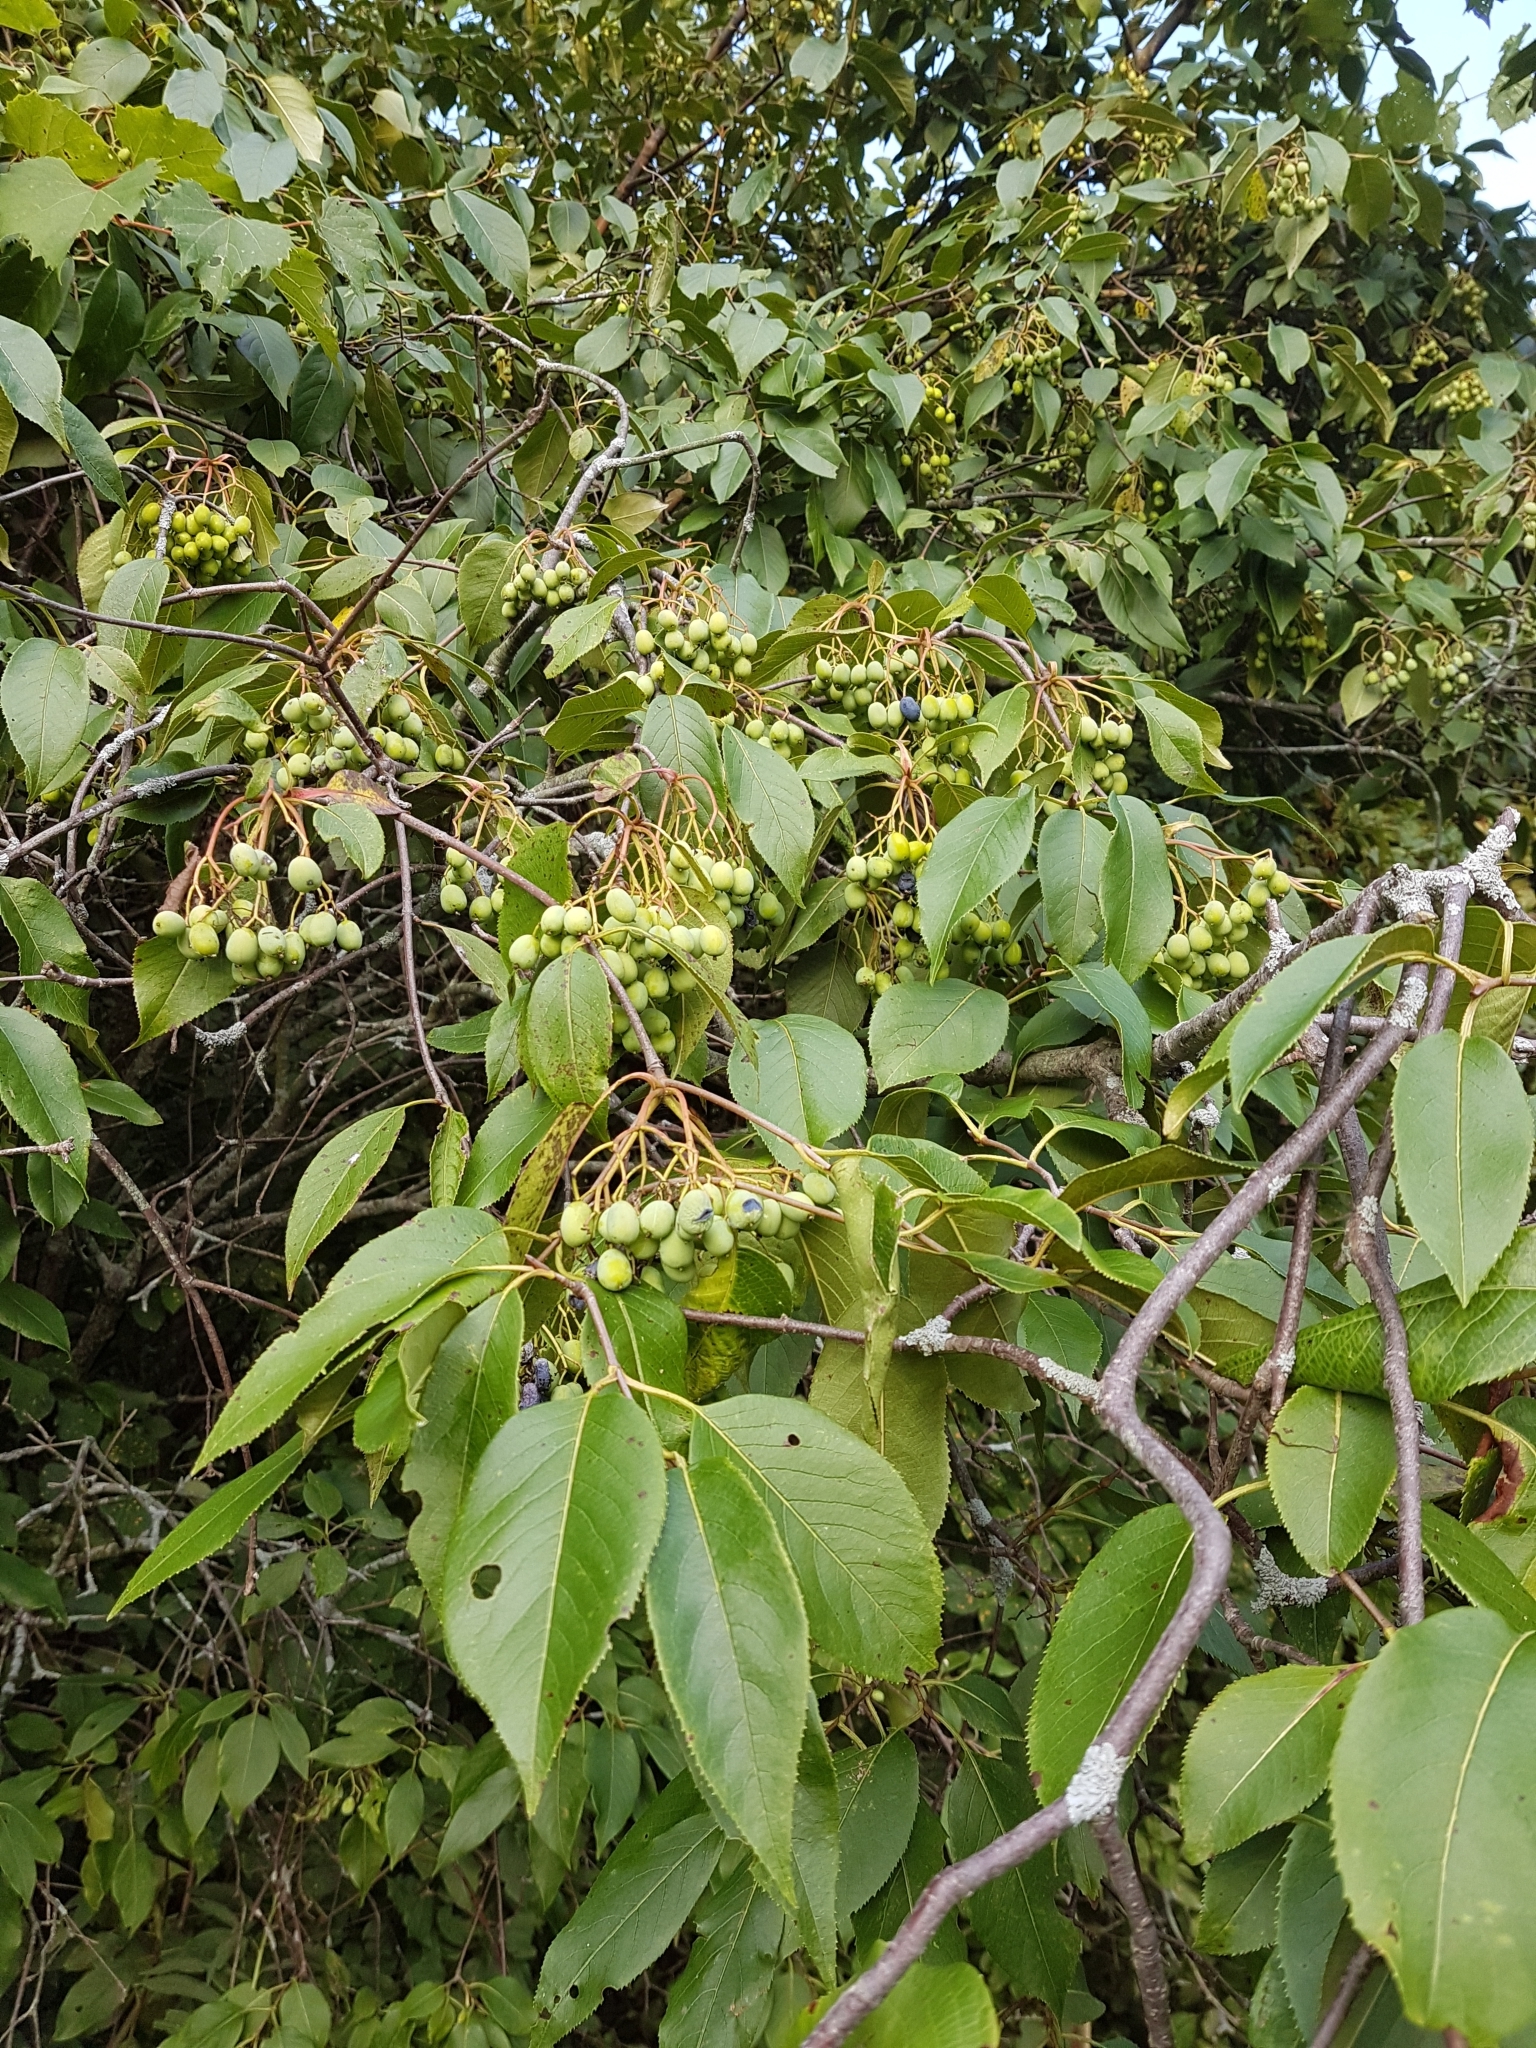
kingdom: Plantae
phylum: Tracheophyta
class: Magnoliopsida
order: Dipsacales
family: Viburnaceae
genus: Viburnum
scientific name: Viburnum lentago
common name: Black haw
